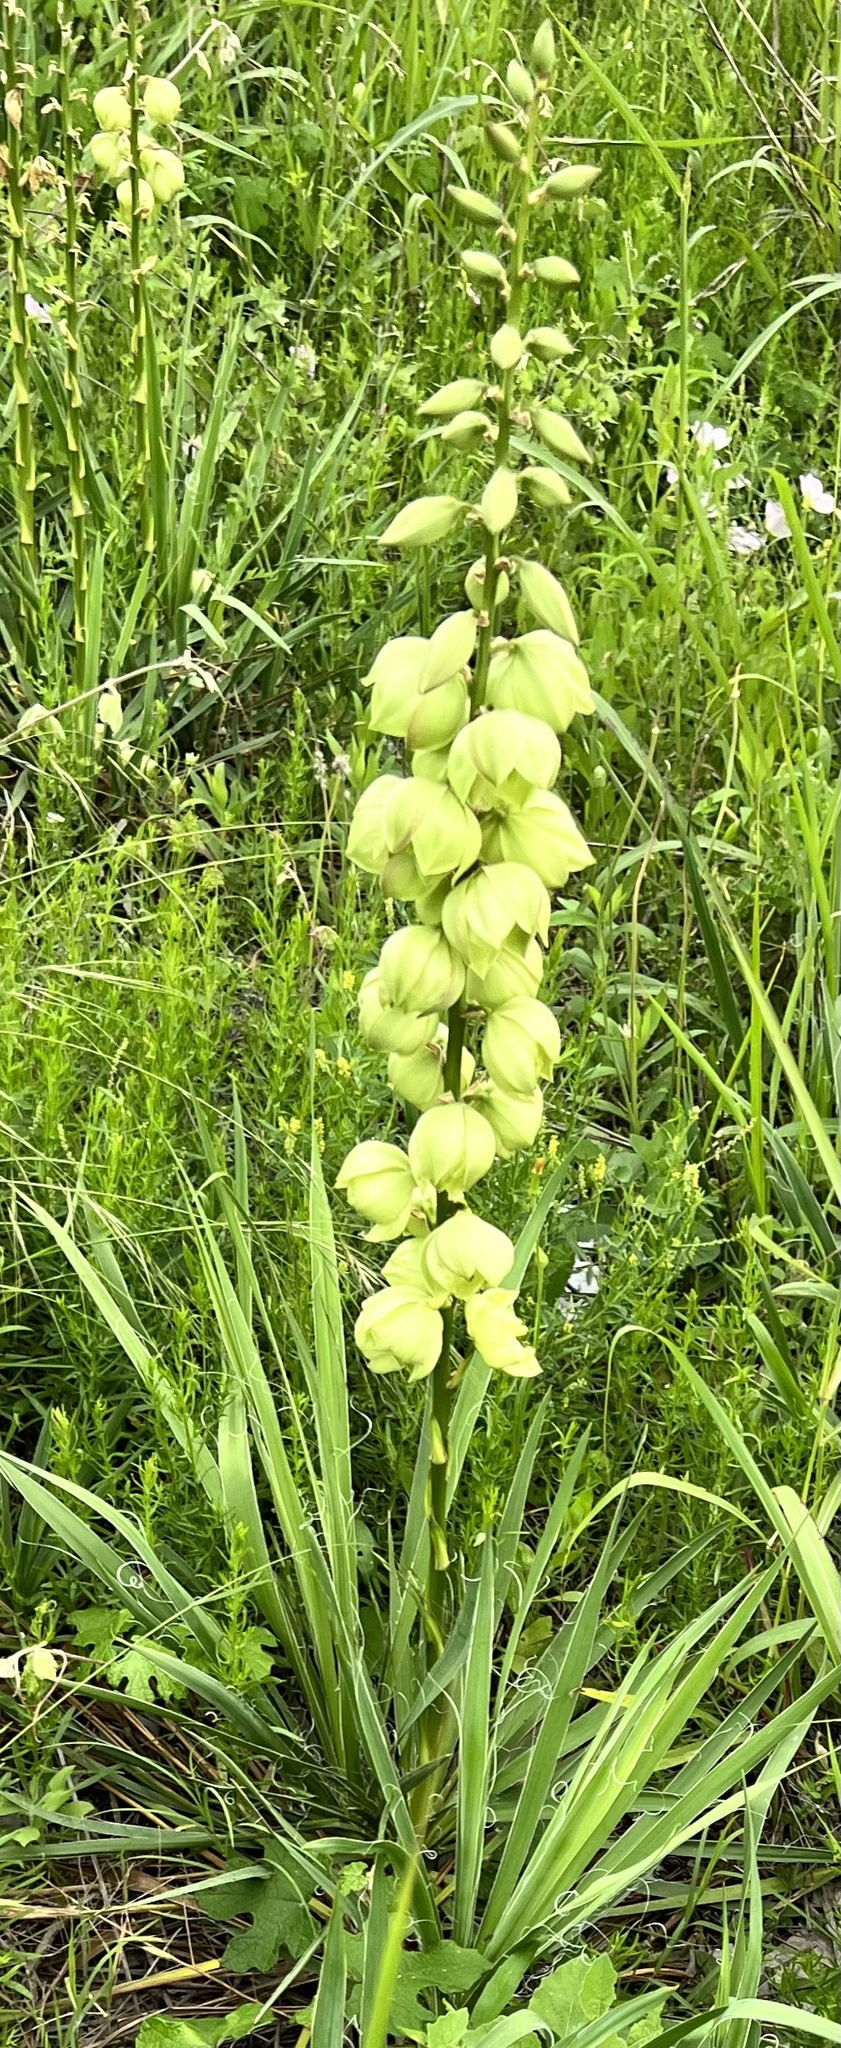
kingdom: Plantae
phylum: Tracheophyta
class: Liliopsida
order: Asparagales
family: Asparagaceae
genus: Yucca
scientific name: Yucca arkansana
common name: Arkansas yucca
